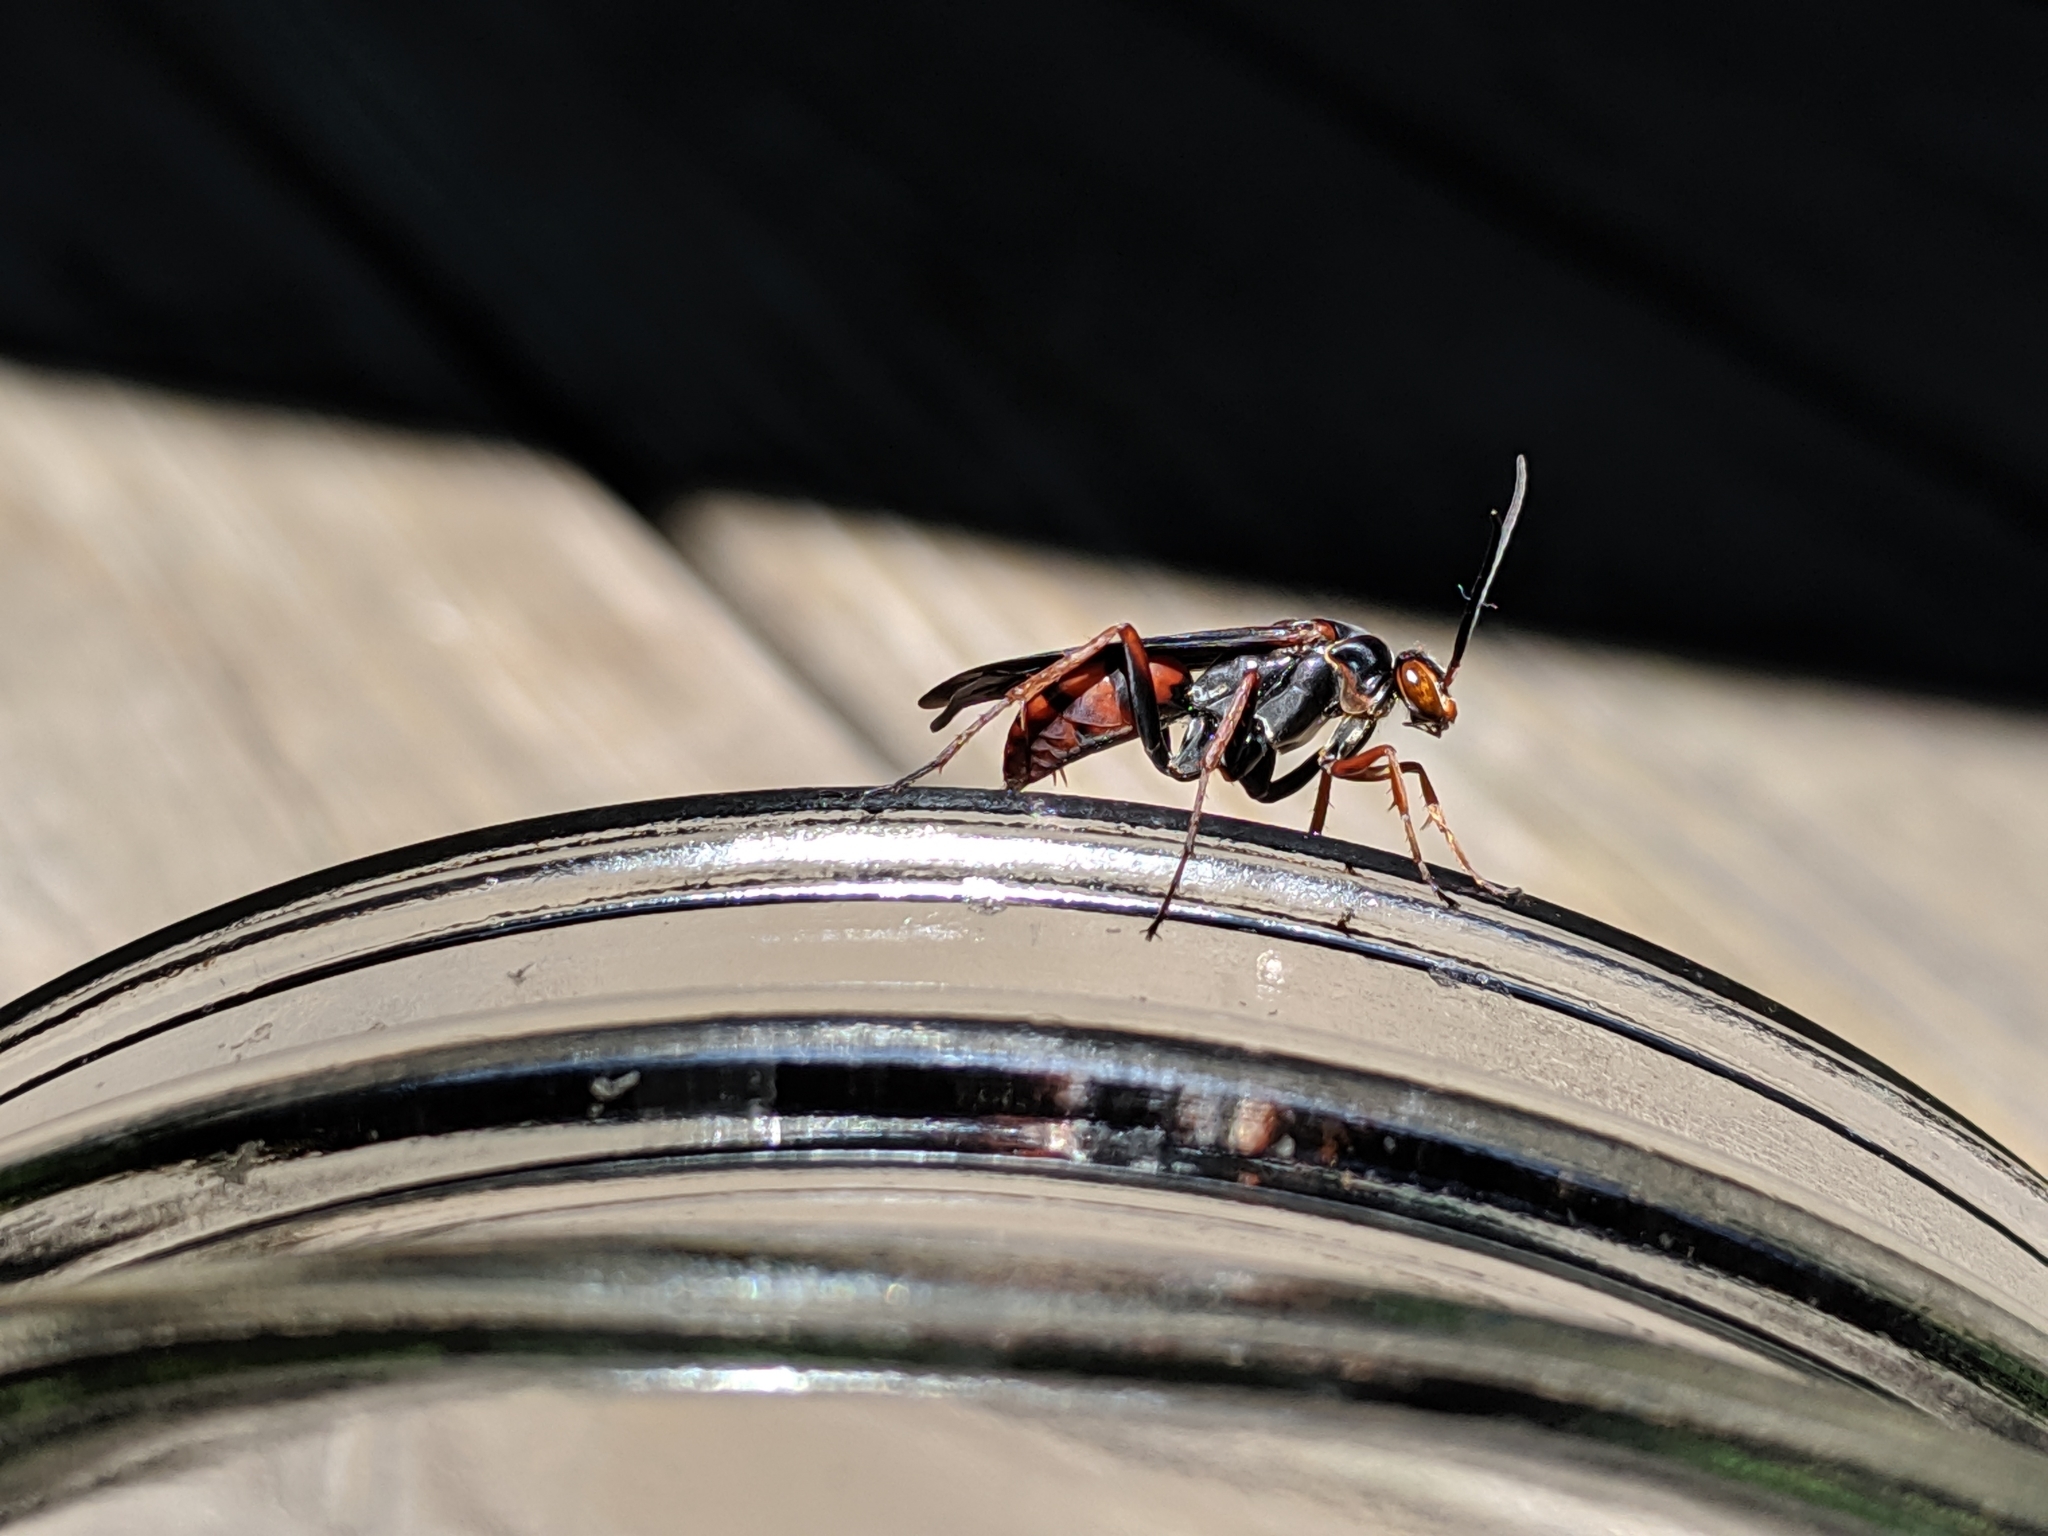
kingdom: Animalia
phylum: Arthropoda
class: Insecta
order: Hymenoptera
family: Pompilidae
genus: Tachypompilus
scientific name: Tachypompilus ferrugineus
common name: Rusty spider wasp
